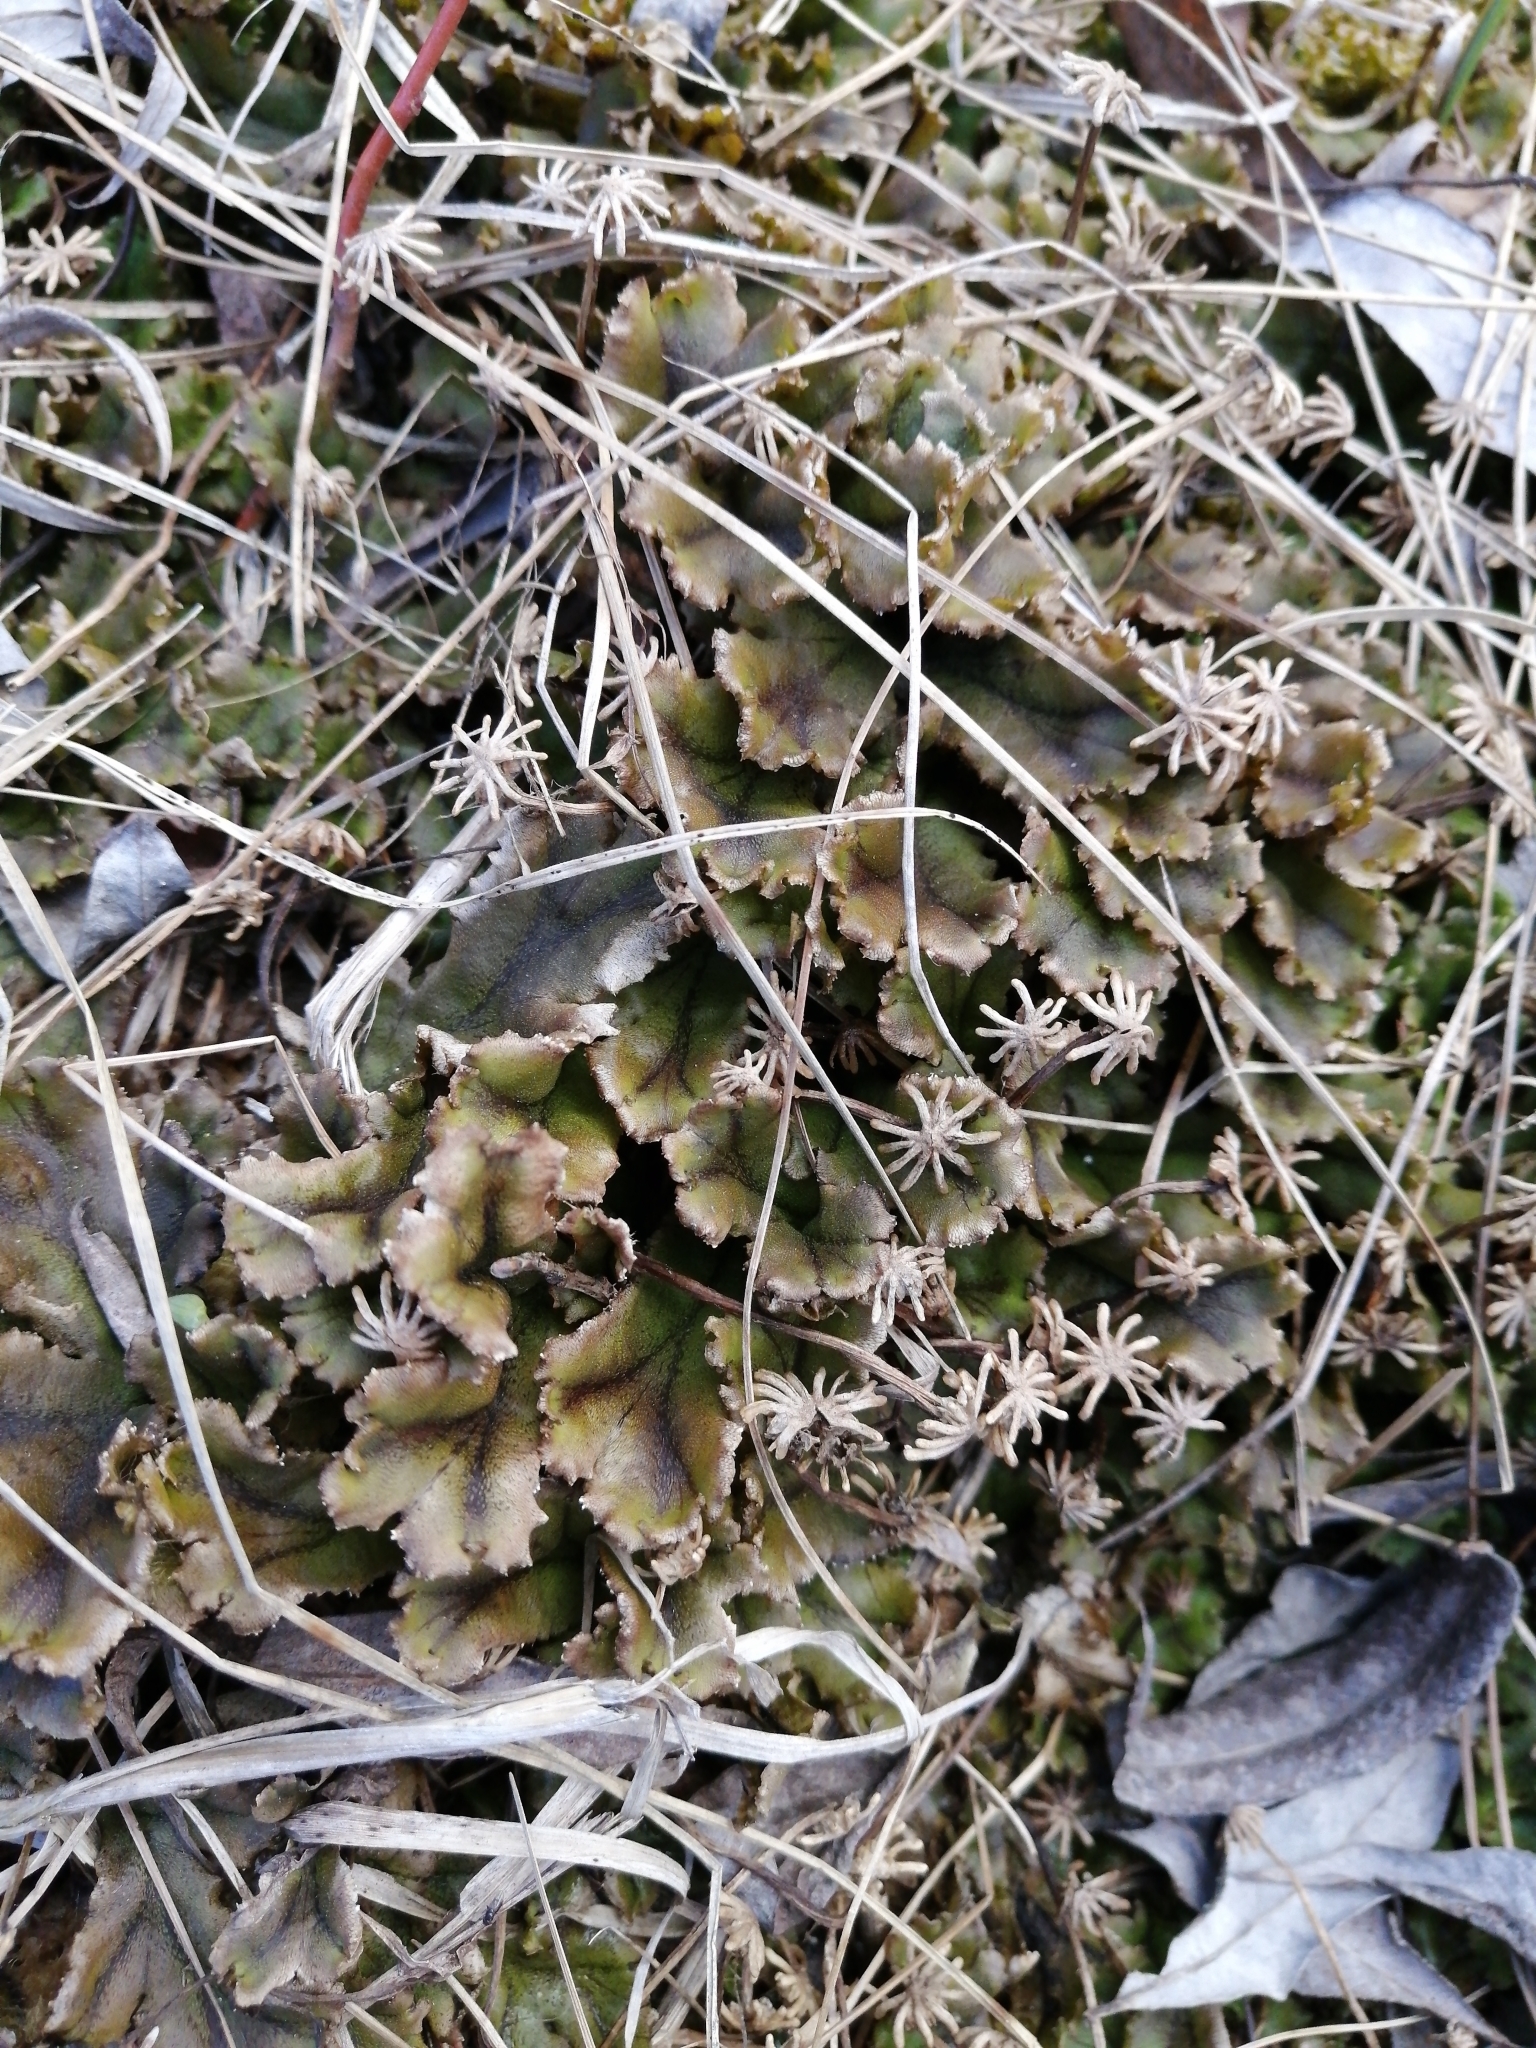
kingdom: Plantae
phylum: Marchantiophyta
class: Marchantiopsida
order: Marchantiales
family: Marchantiaceae
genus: Marchantia
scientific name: Marchantia polymorpha
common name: Common liverwort
